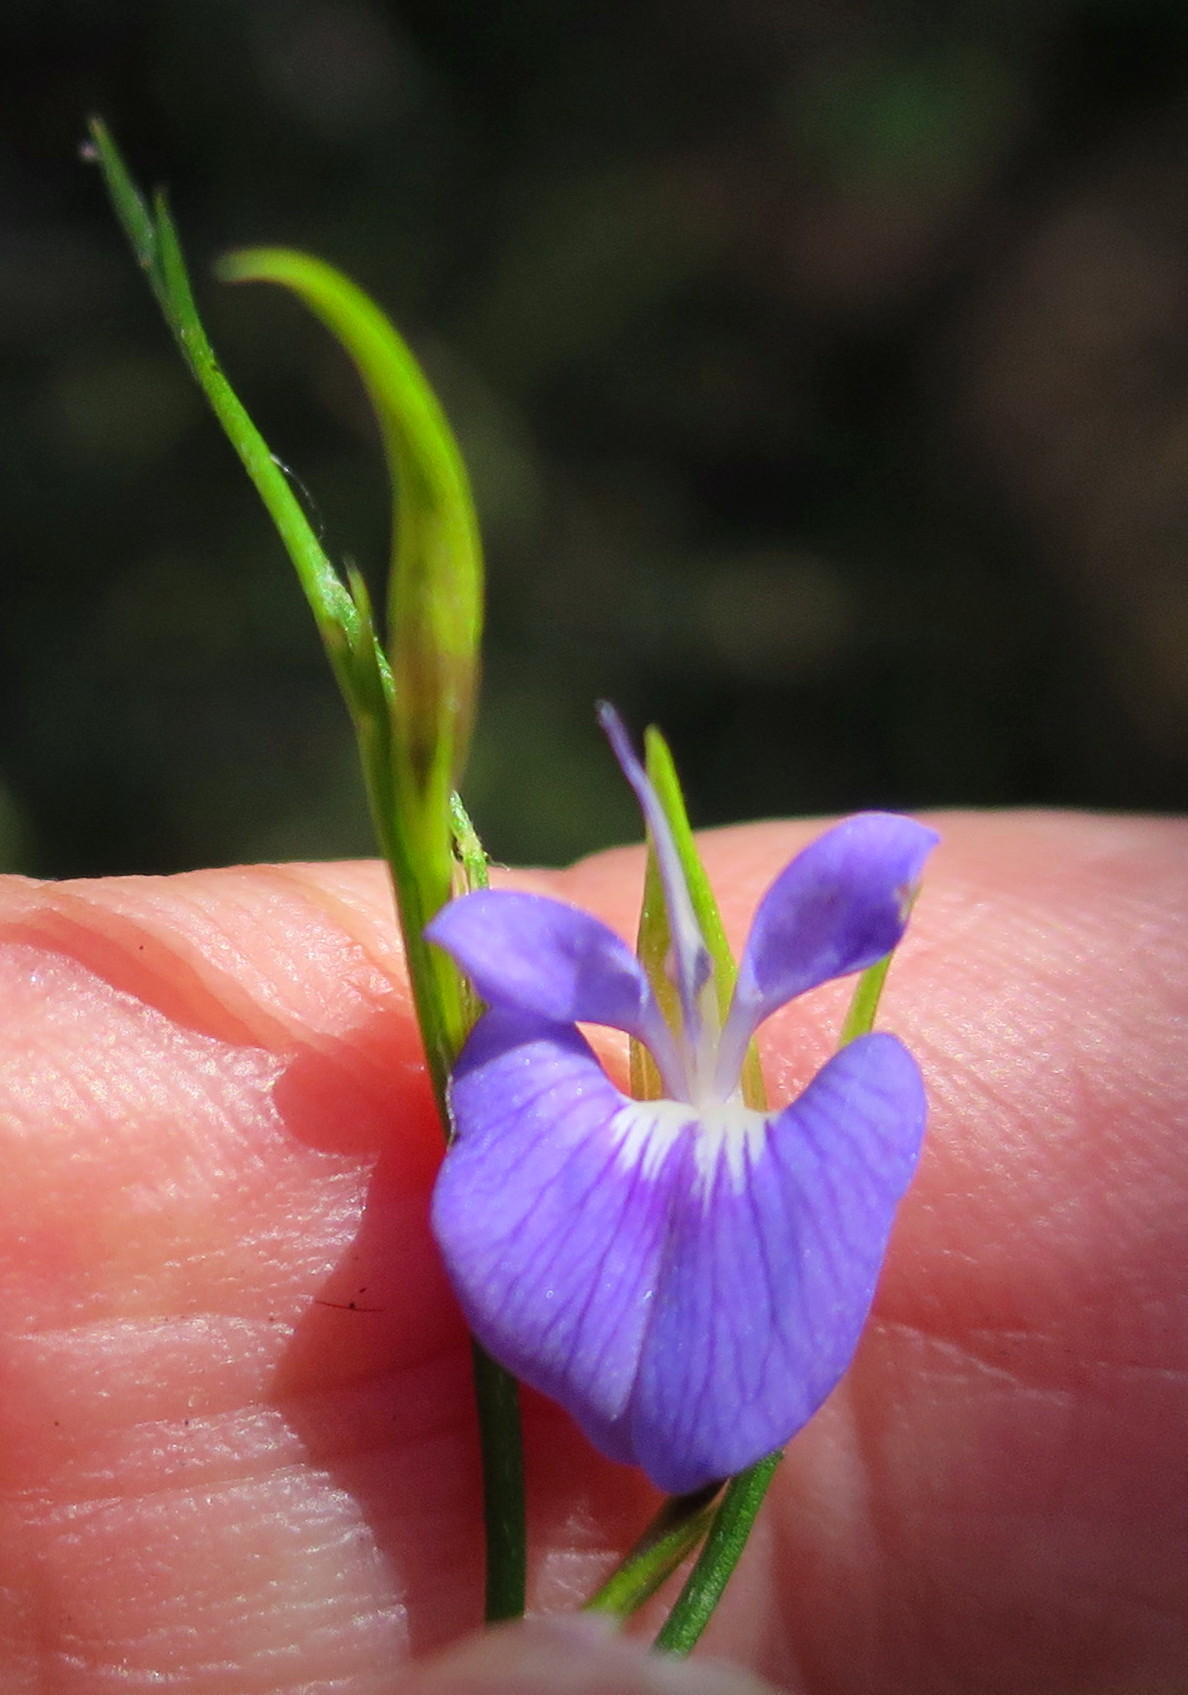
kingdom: Plantae
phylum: Tracheophyta
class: Magnoliopsida
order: Fabales
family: Fabaceae
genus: Psoralea
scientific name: Psoralea trullata
